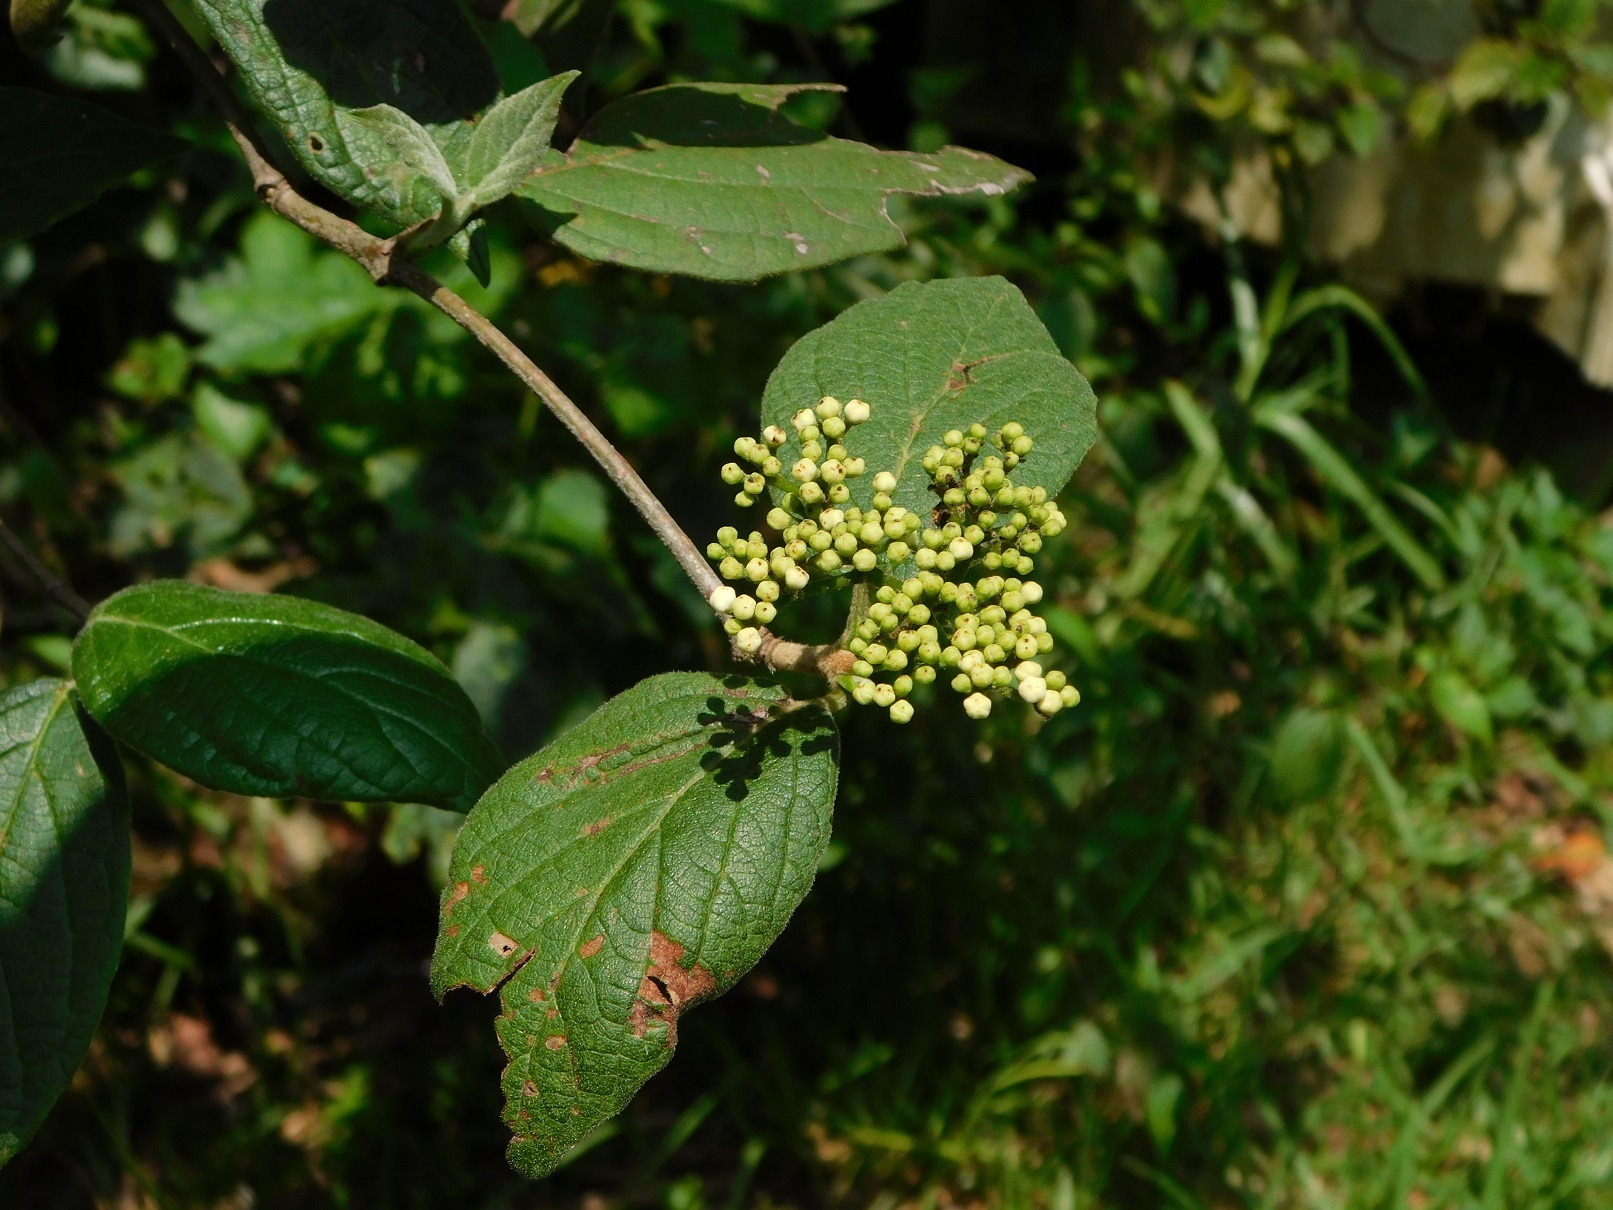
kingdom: Plantae
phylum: Tracheophyta
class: Magnoliopsida
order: Dipsacales
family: Viburnaceae
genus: Viburnum
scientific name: Viburnum jucundum
